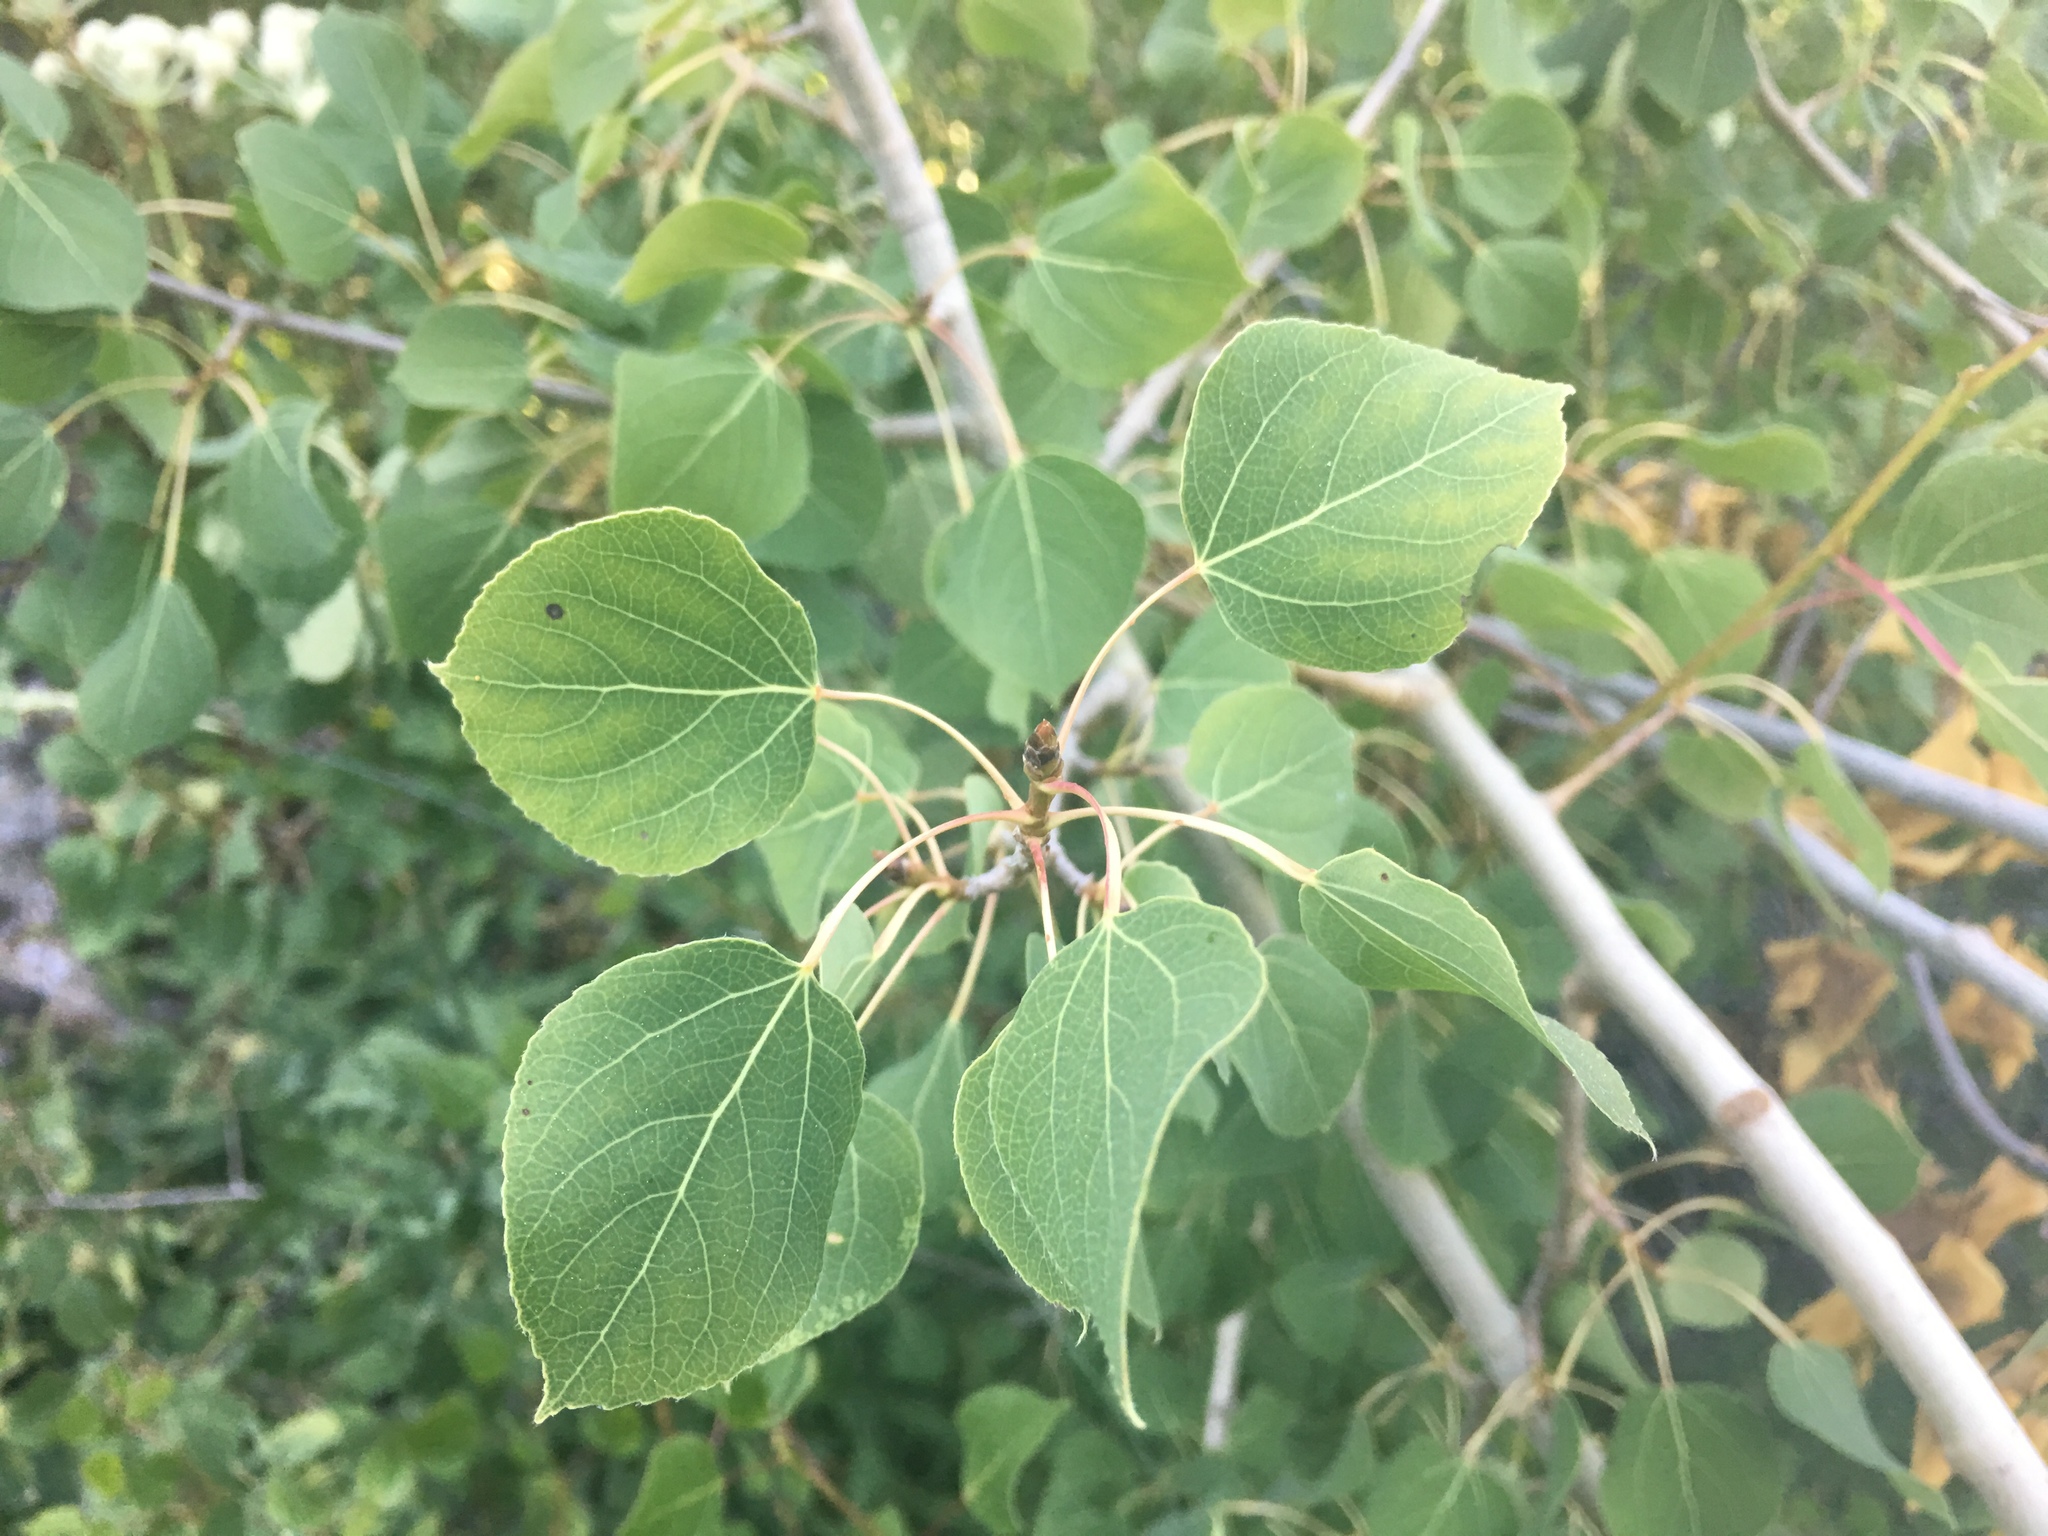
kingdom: Plantae
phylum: Tracheophyta
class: Magnoliopsida
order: Malpighiales
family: Salicaceae
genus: Populus
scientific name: Populus tremuloides
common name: Quaking aspen
